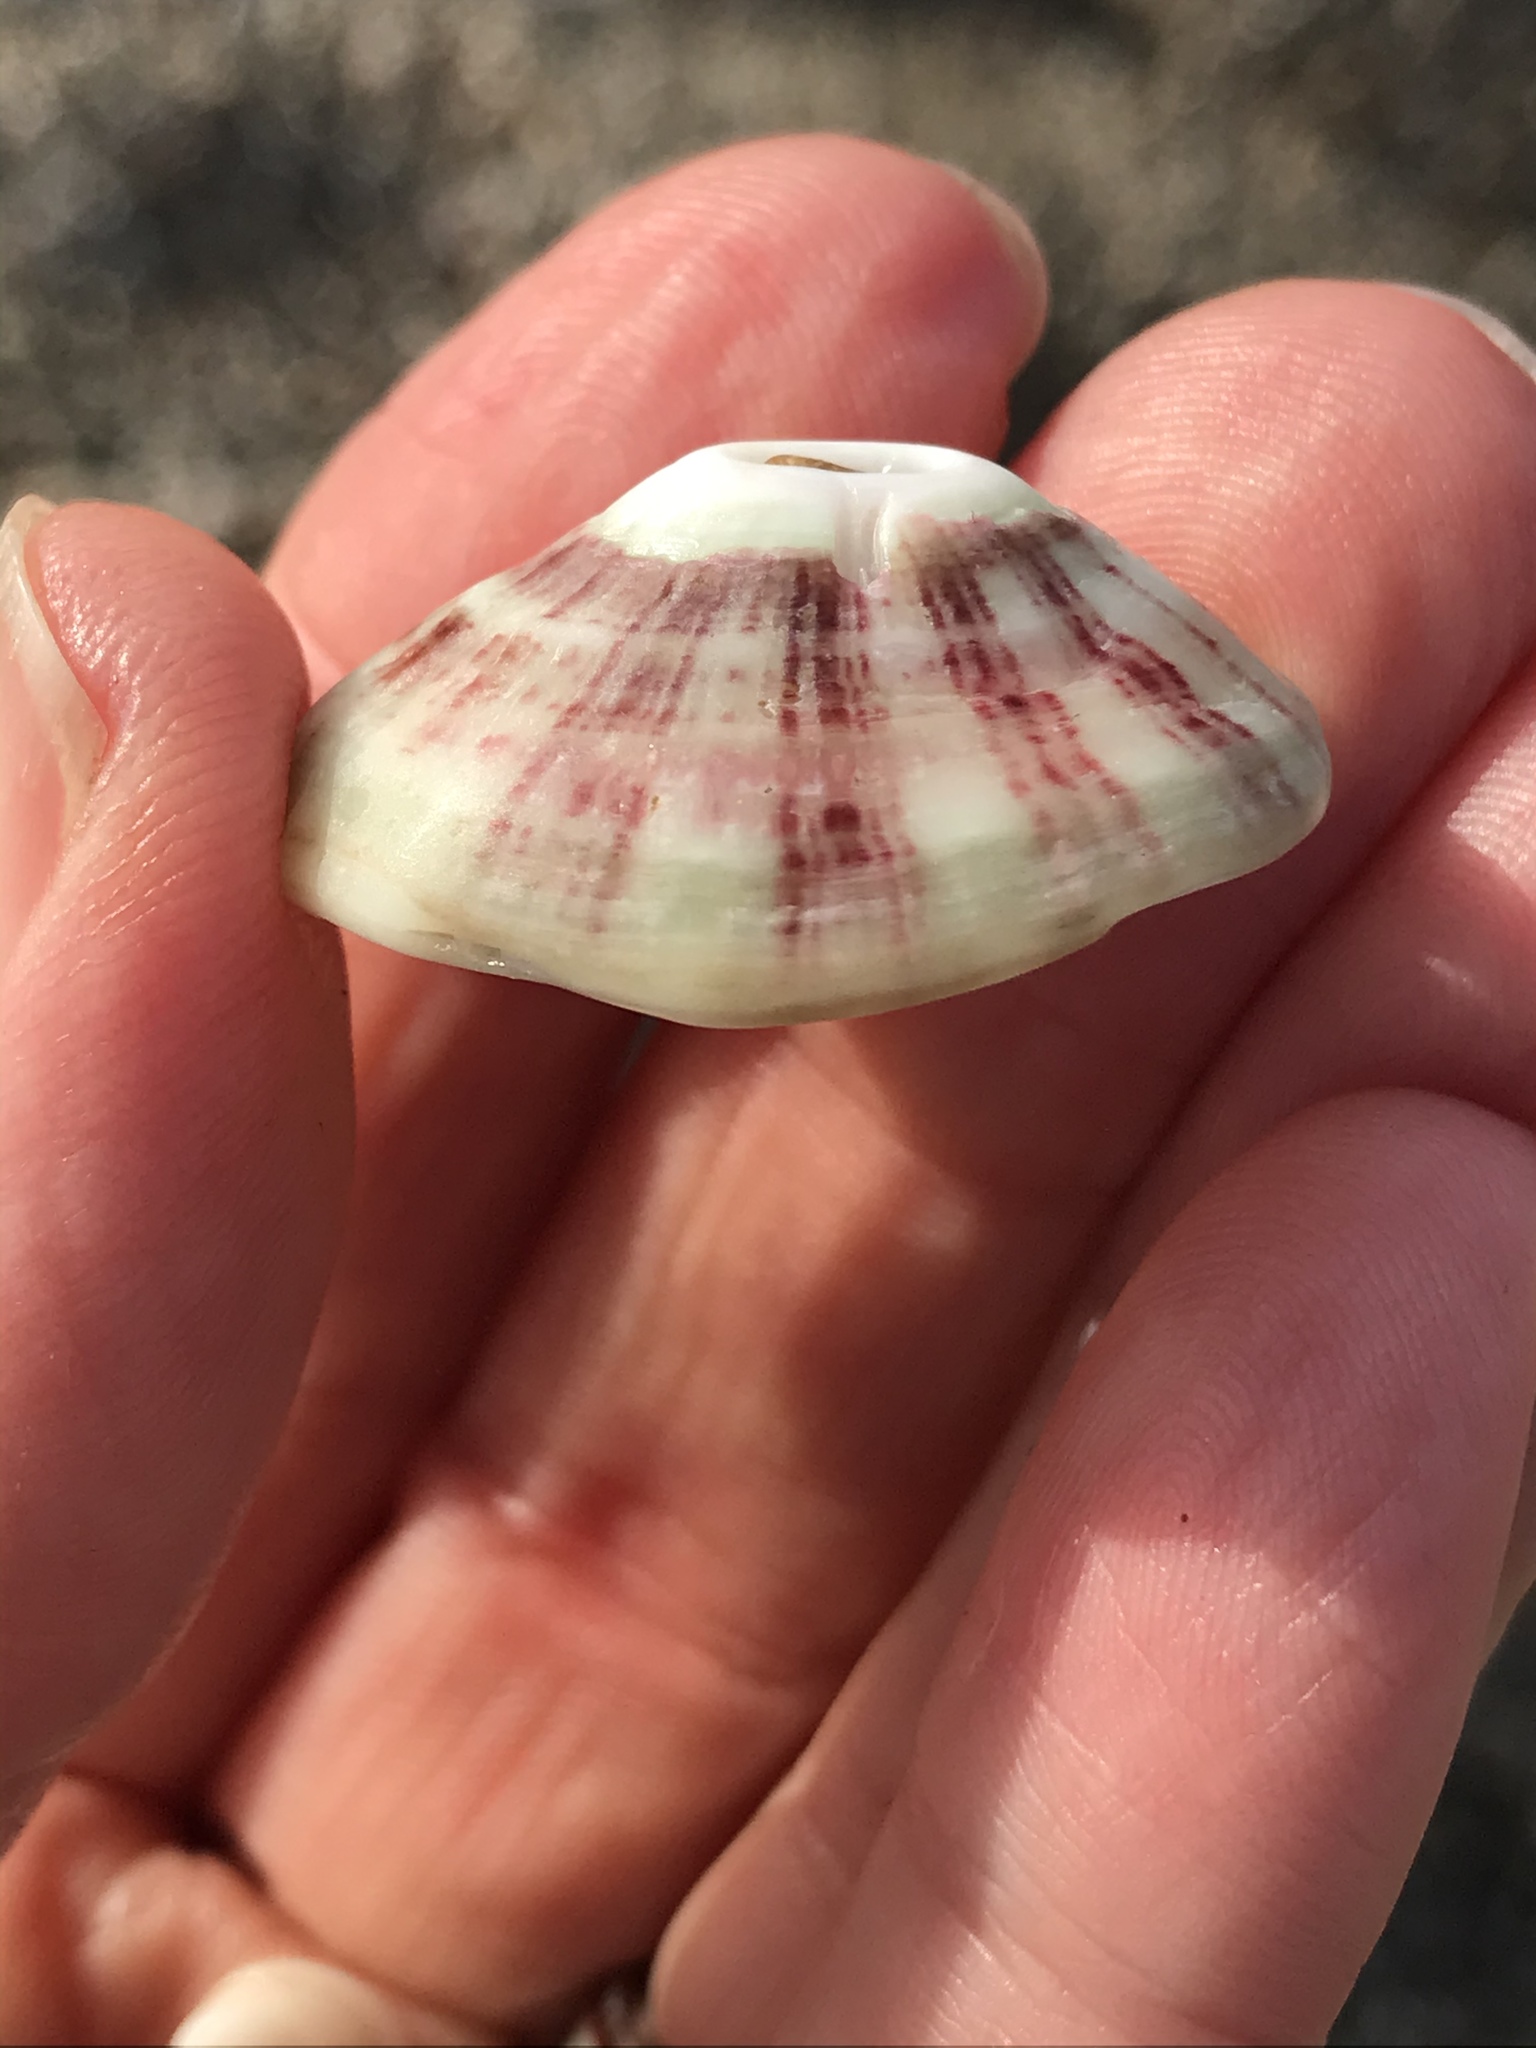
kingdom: Animalia
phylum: Mollusca
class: Gastropoda
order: Lepetellida
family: Fissurellidae
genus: Fissurella
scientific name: Fissurella volcano
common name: Volcano keyhole limpet
